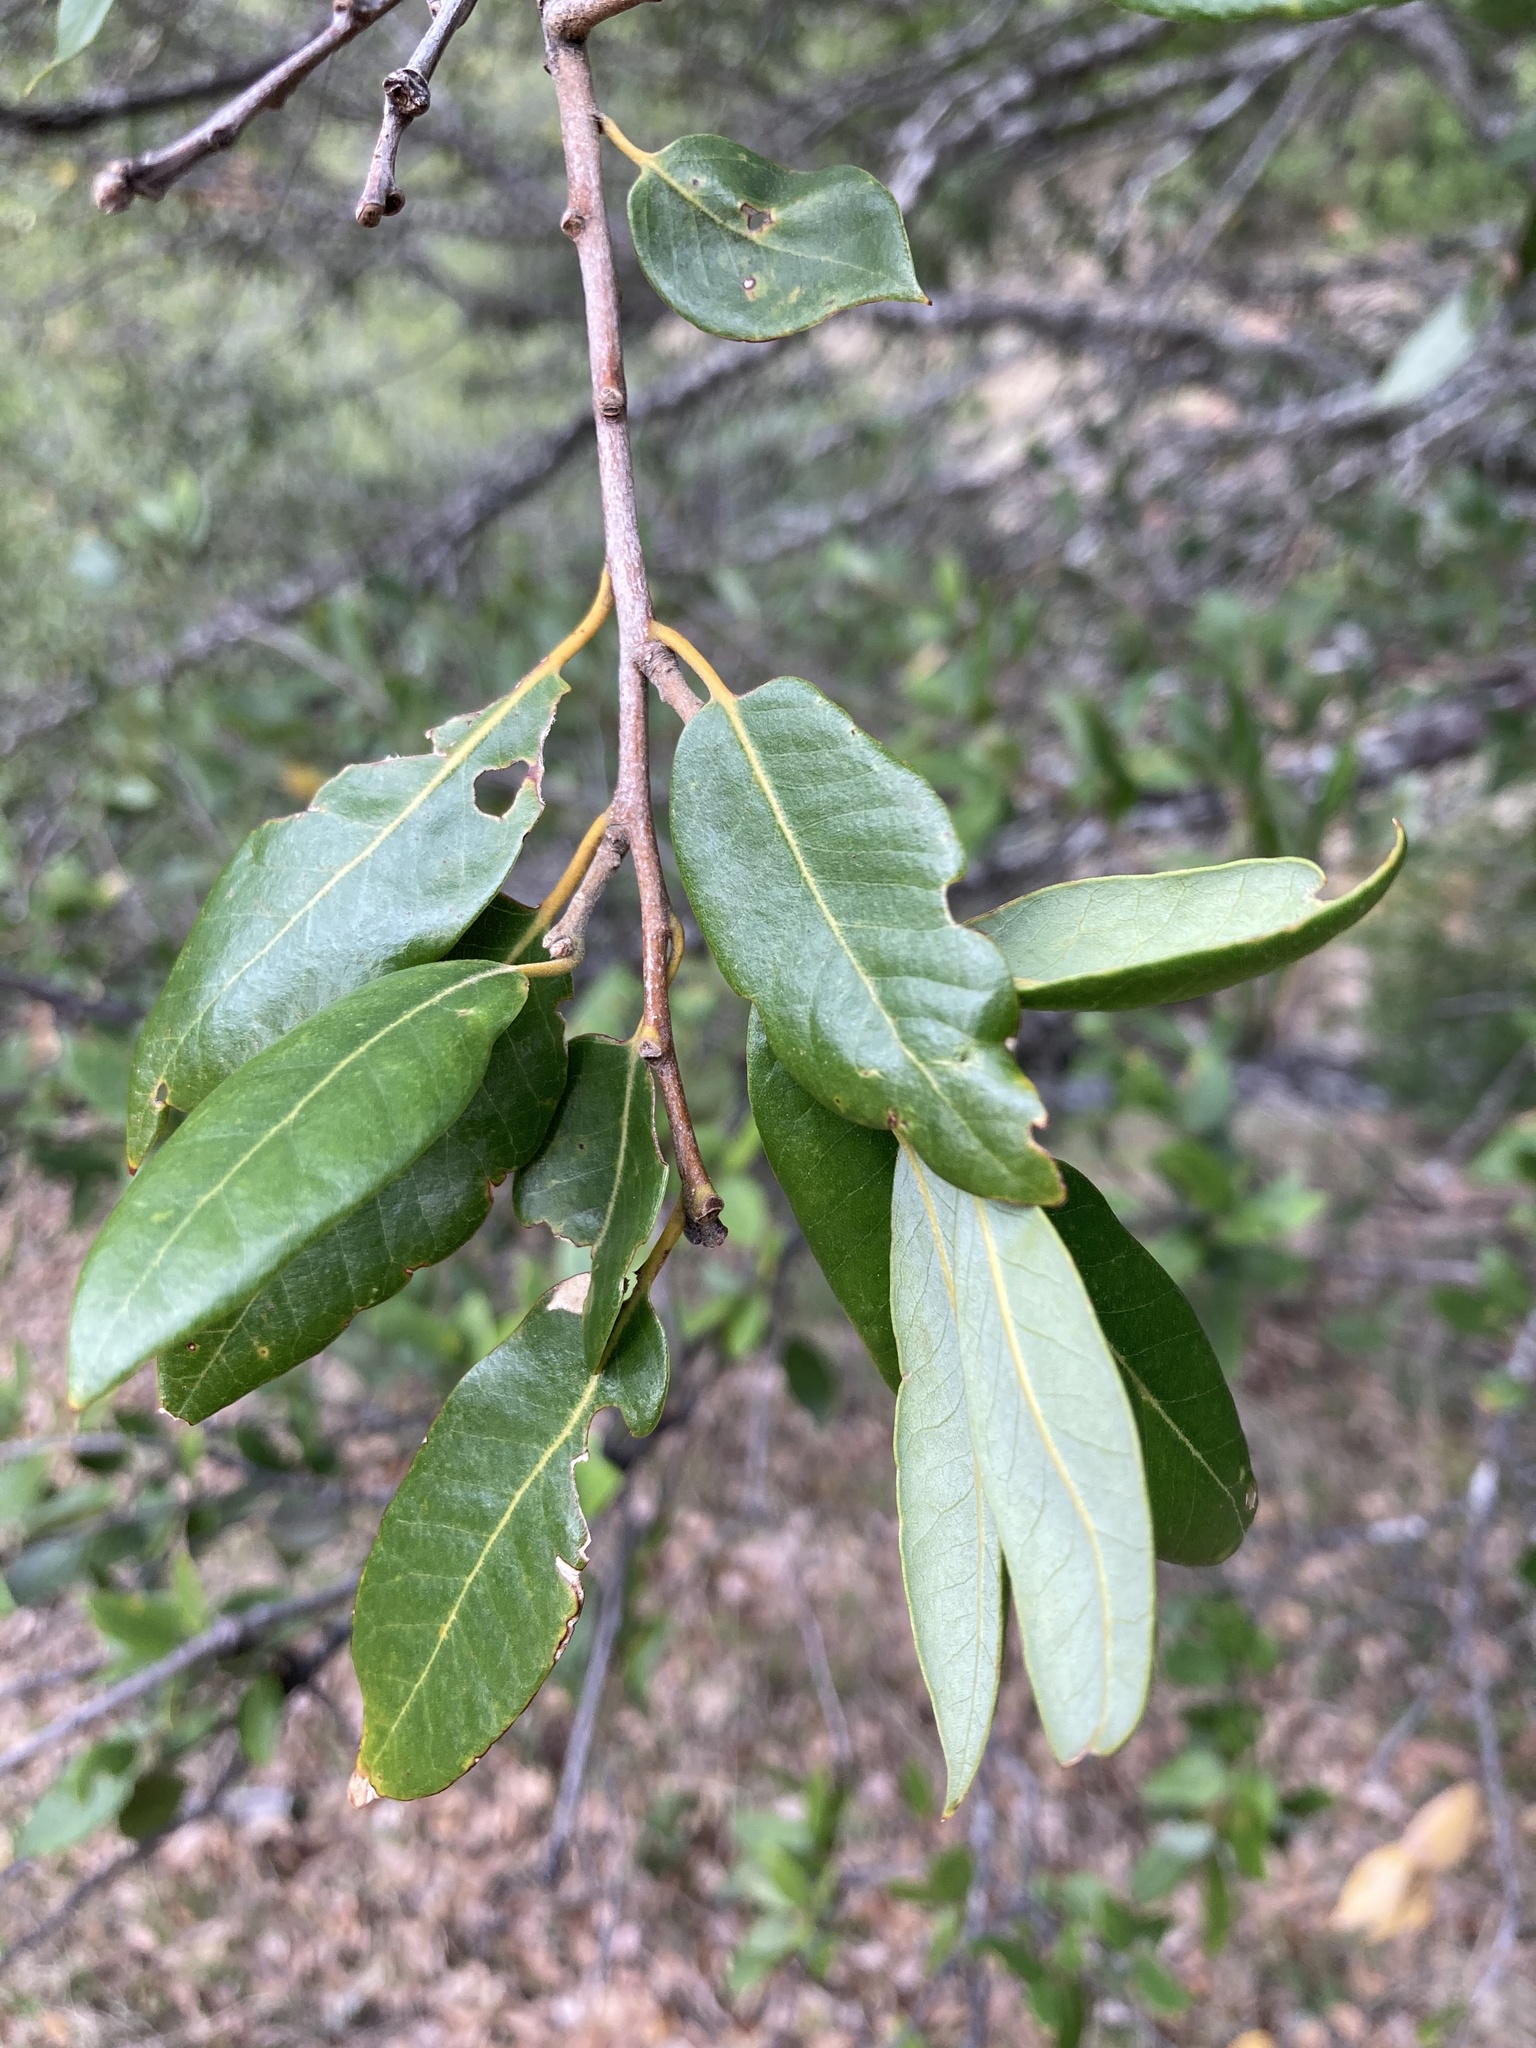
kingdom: Plantae
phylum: Tracheophyta
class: Magnoliopsida
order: Fagales
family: Fagaceae
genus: Quercus
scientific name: Quercus chrysolepis
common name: Canyon live oak
